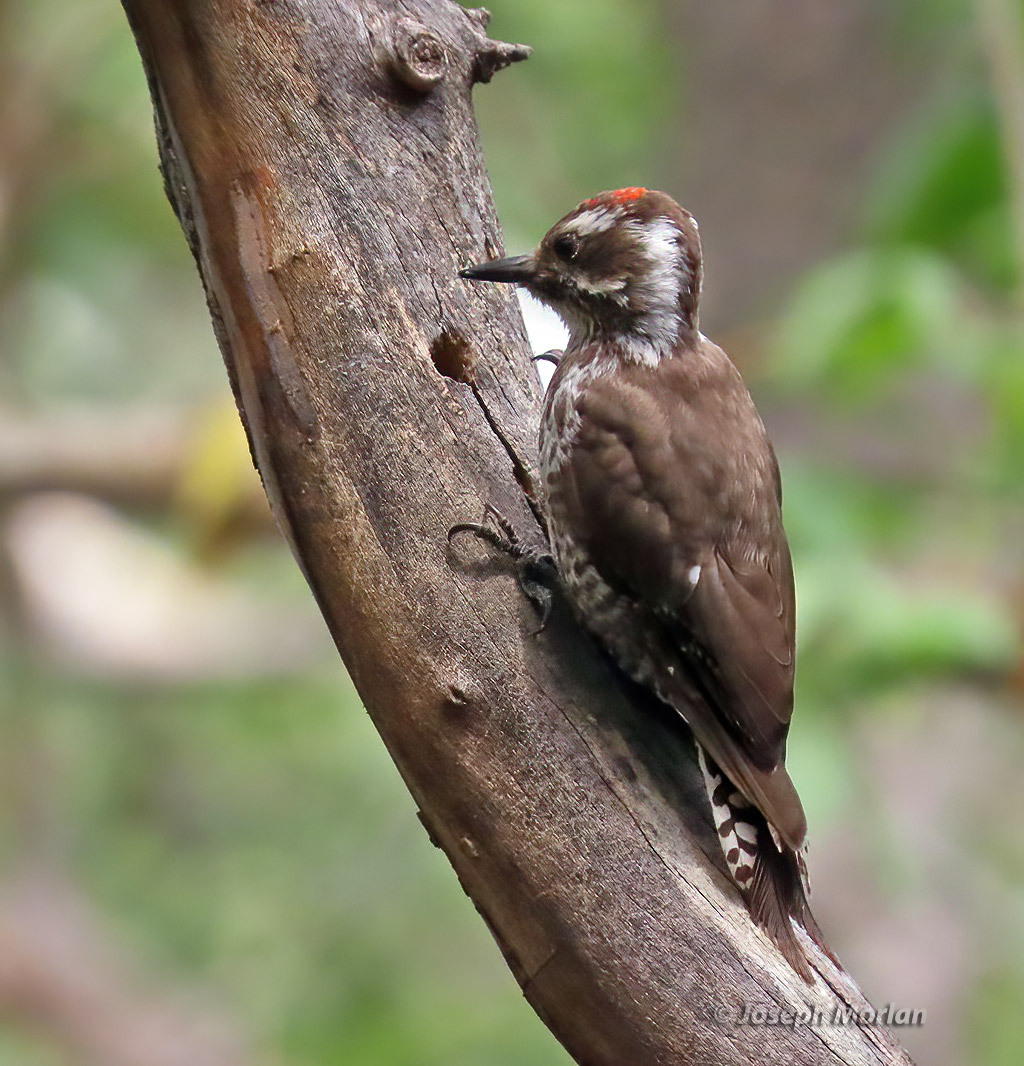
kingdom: Animalia
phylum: Chordata
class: Aves
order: Piciformes
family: Picidae
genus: Leuconotopicus
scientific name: Leuconotopicus arizonae
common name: Arizona woodpecker
